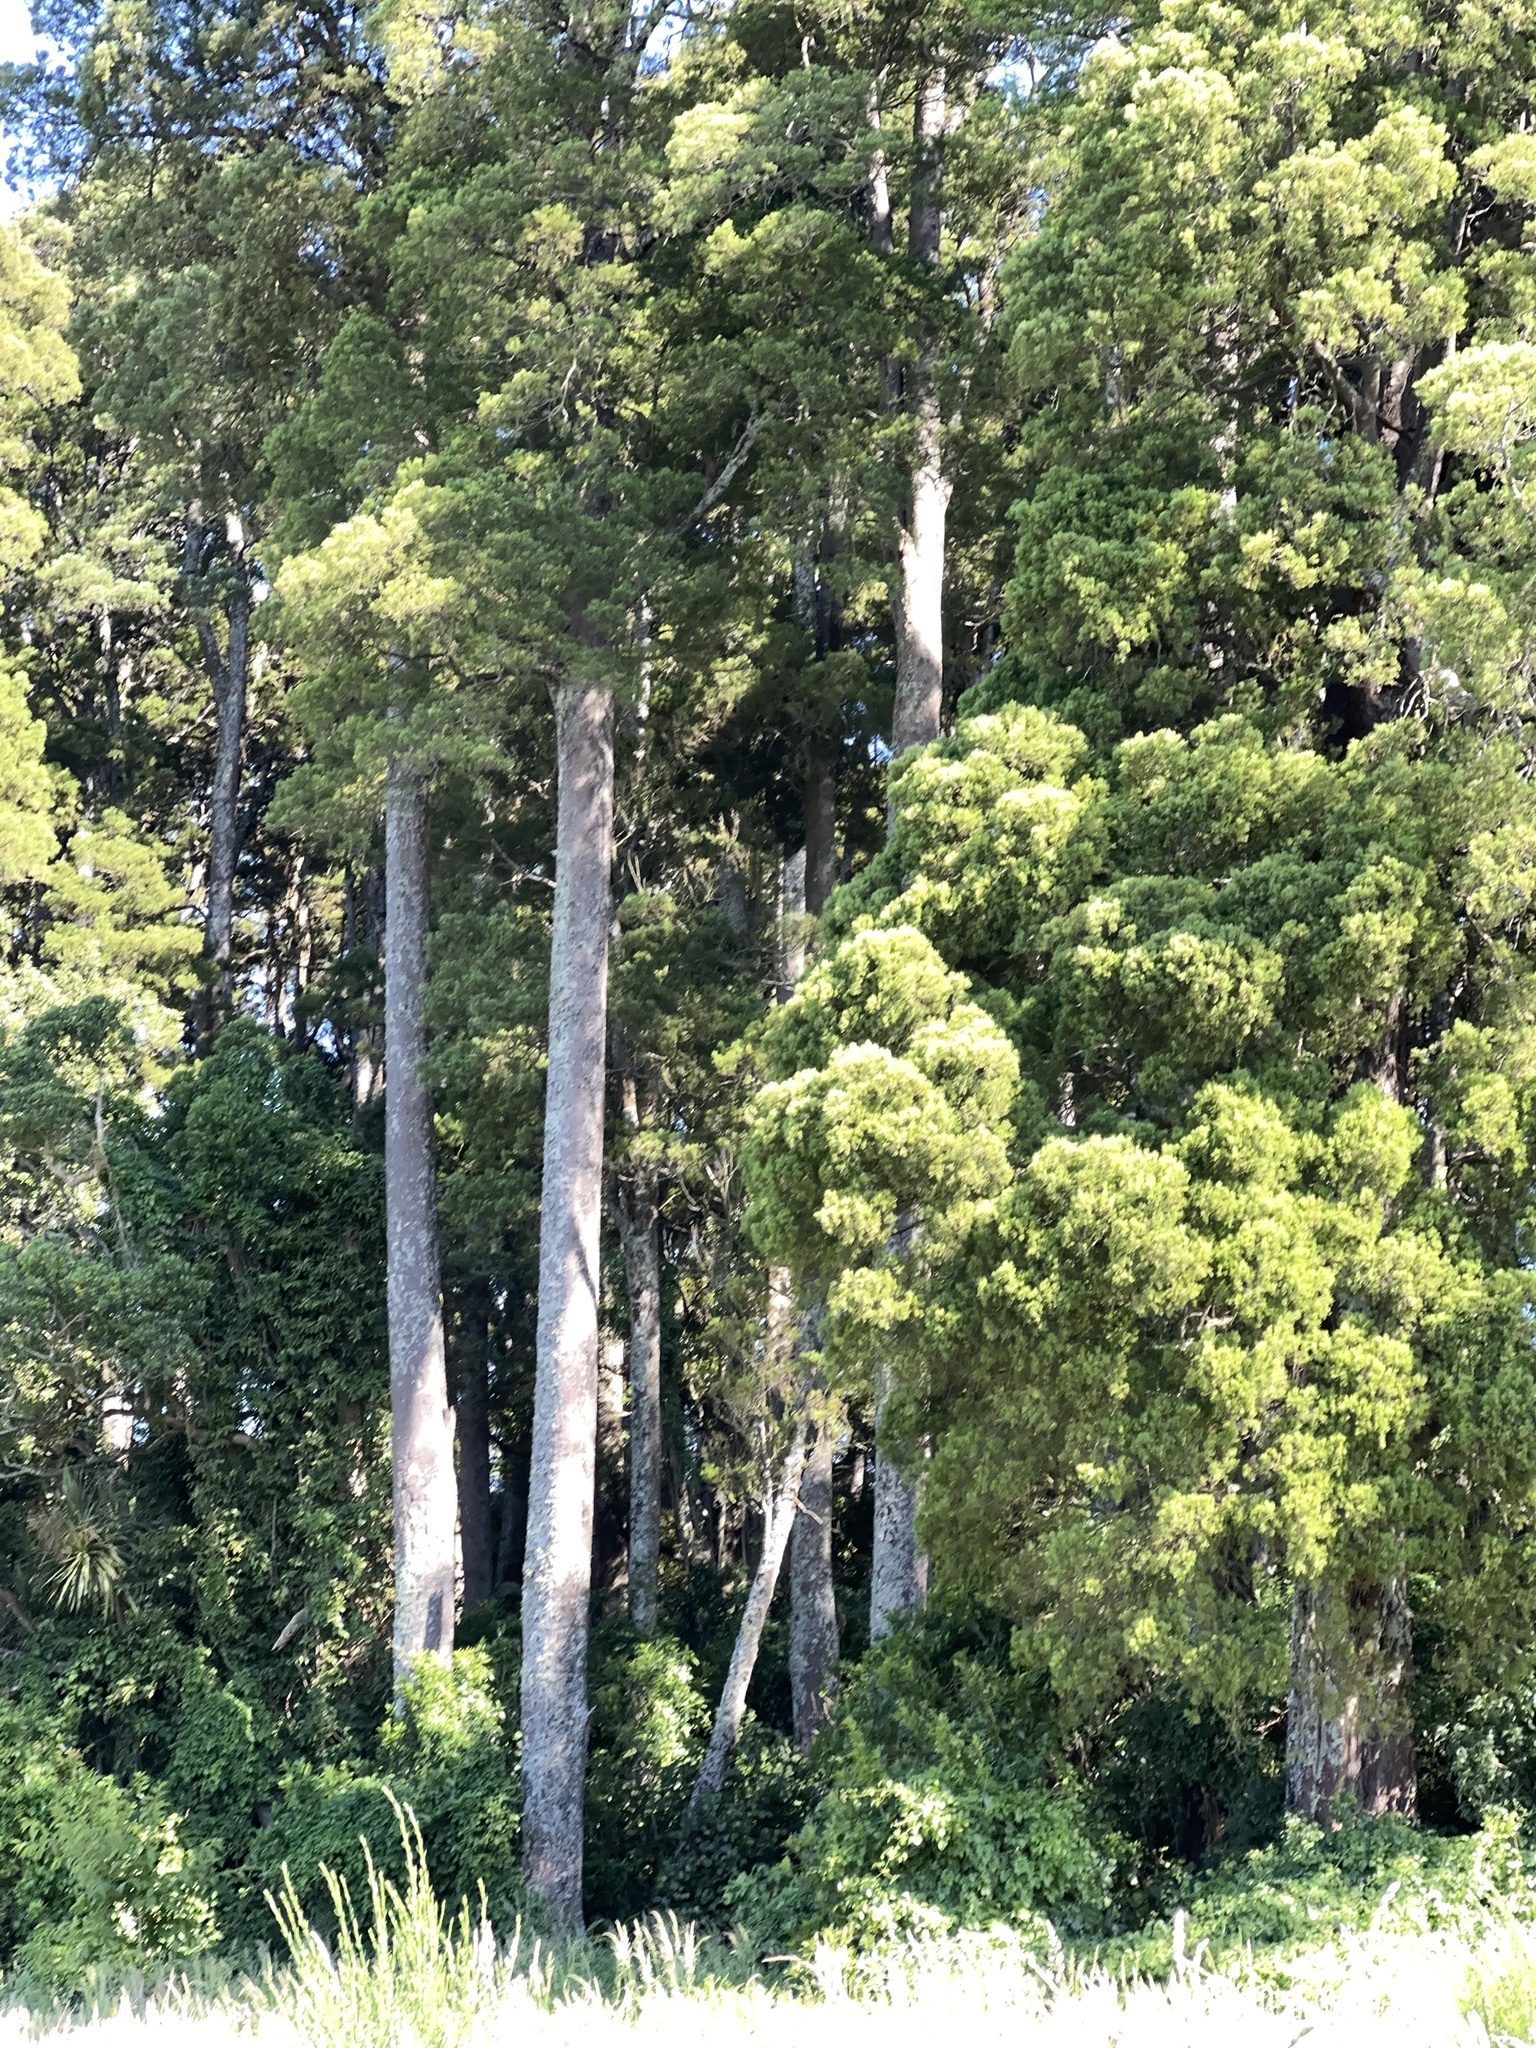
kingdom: Plantae
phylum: Tracheophyta
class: Pinopsida
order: Pinales
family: Podocarpaceae
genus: Dacrycarpus
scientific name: Dacrycarpus dacrydioides
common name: White pine
